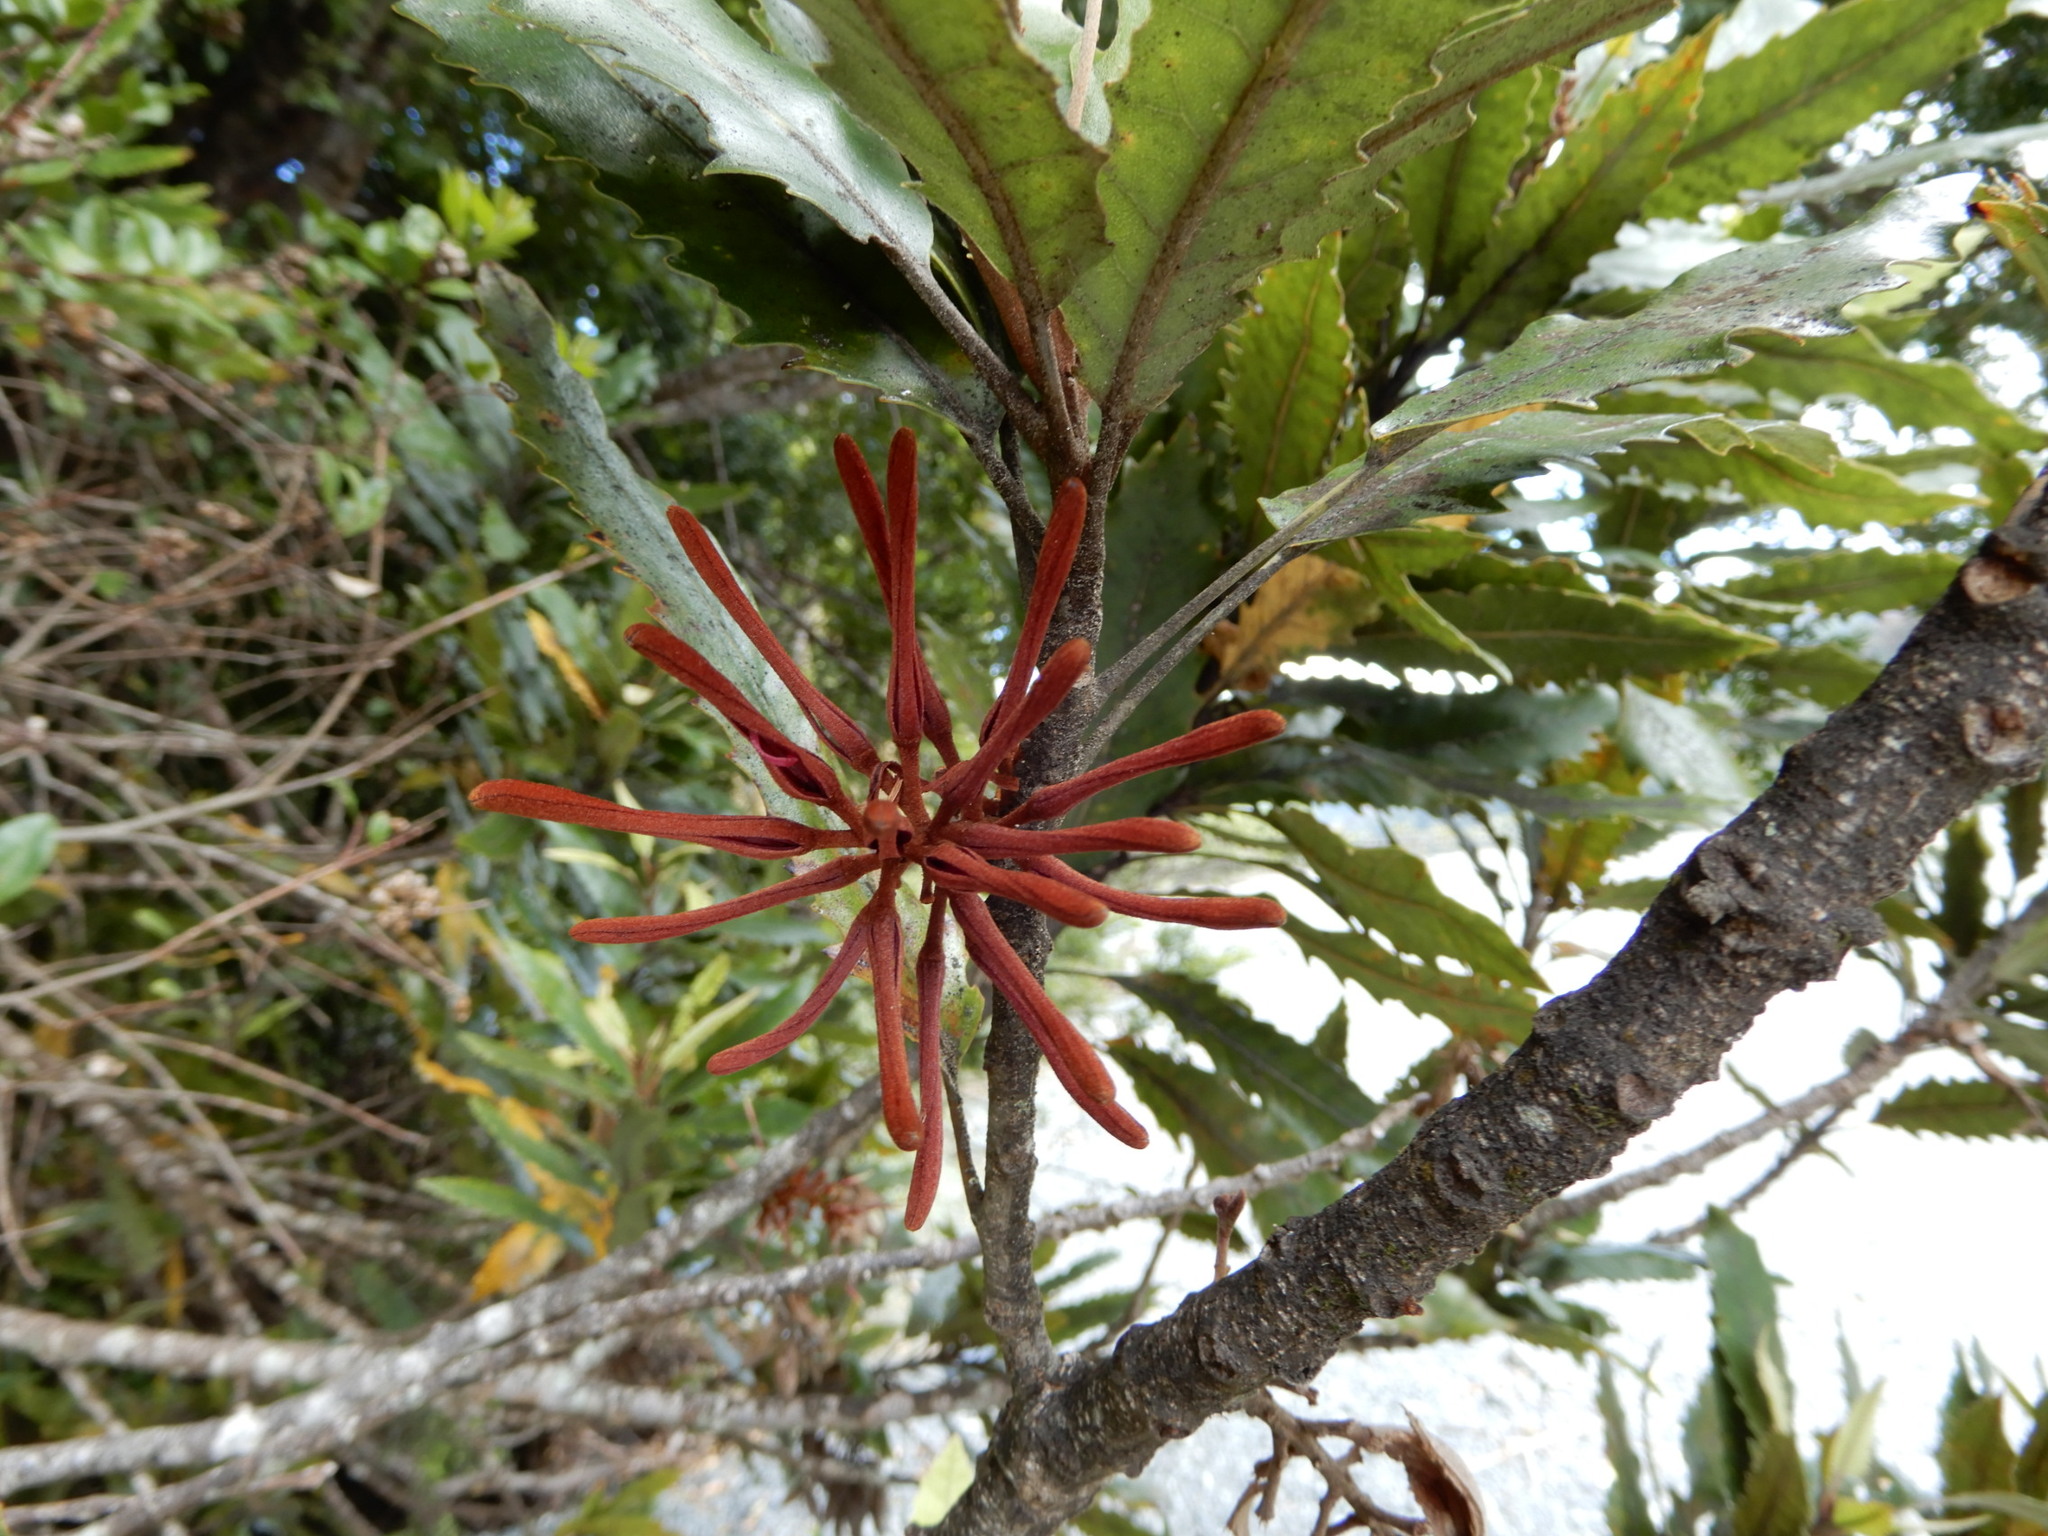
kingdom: Plantae
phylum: Tracheophyta
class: Magnoliopsida
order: Proteales
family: Proteaceae
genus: Knightia
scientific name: Knightia excelsa
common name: New zealand-honeysuckle
